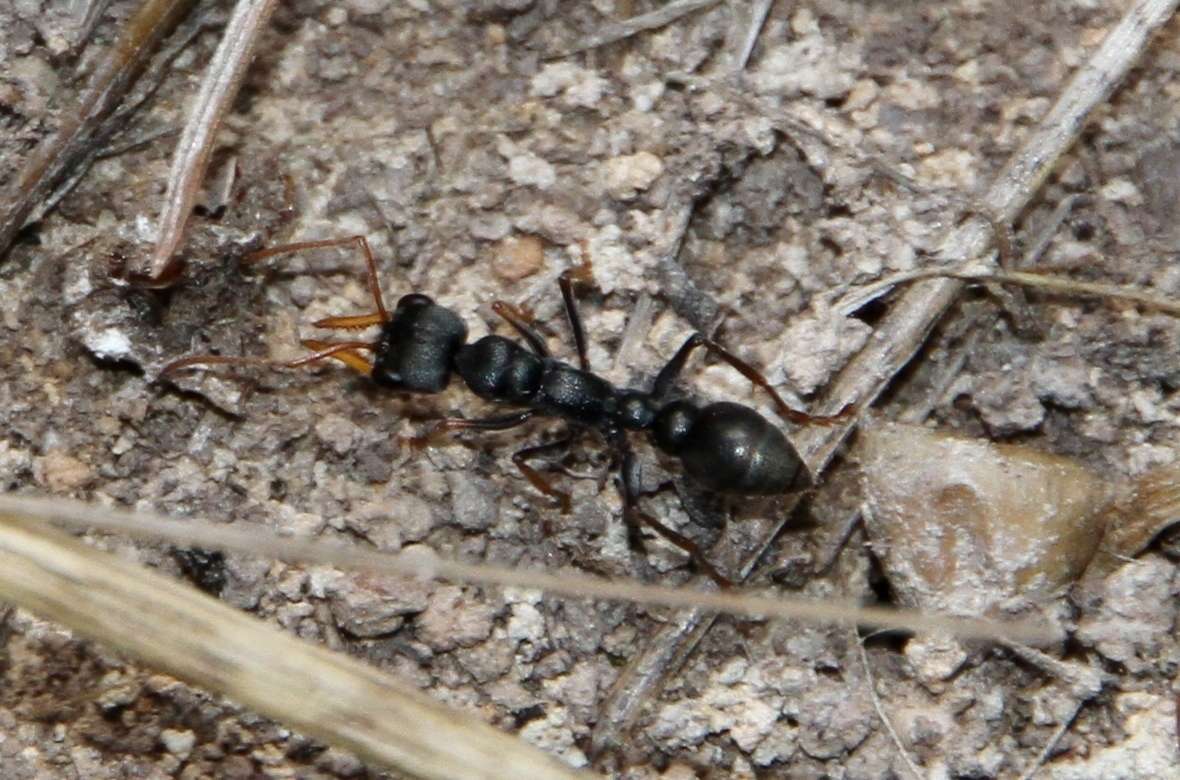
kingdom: Animalia
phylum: Arthropoda
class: Insecta
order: Hymenoptera
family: Formicidae
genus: Myrmecia
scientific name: Myrmecia pilosula
